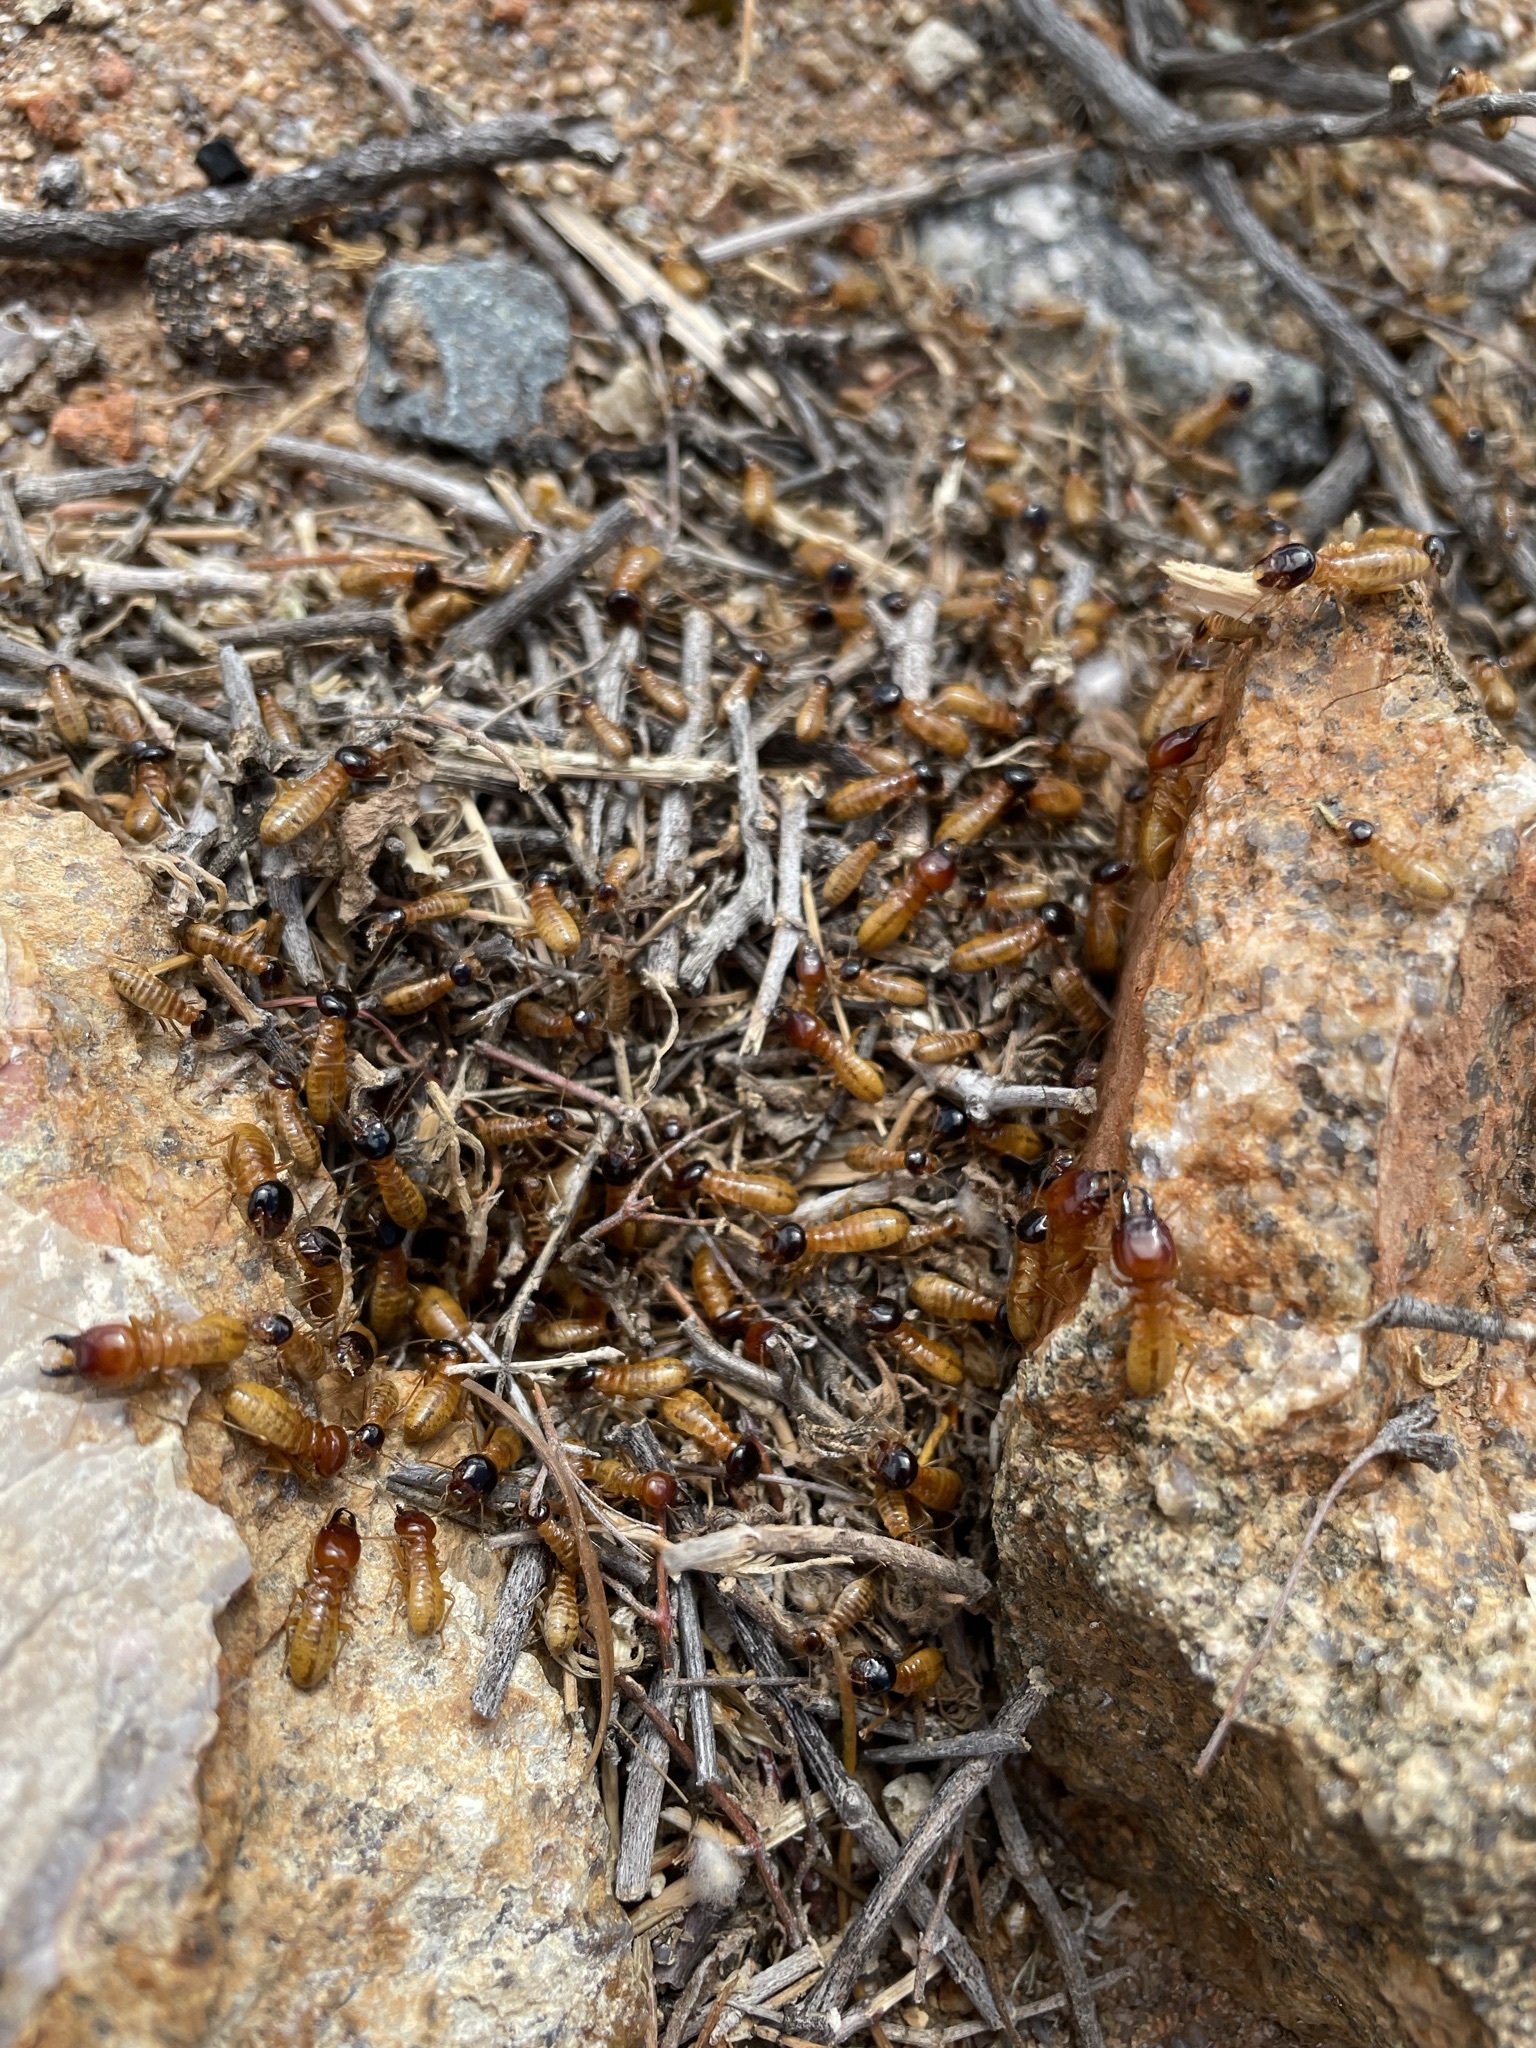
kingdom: Animalia
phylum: Arthropoda
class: Insecta
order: Blattodea
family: Hodotermitidae
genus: Microhodotermes
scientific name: Microhodotermes viator
